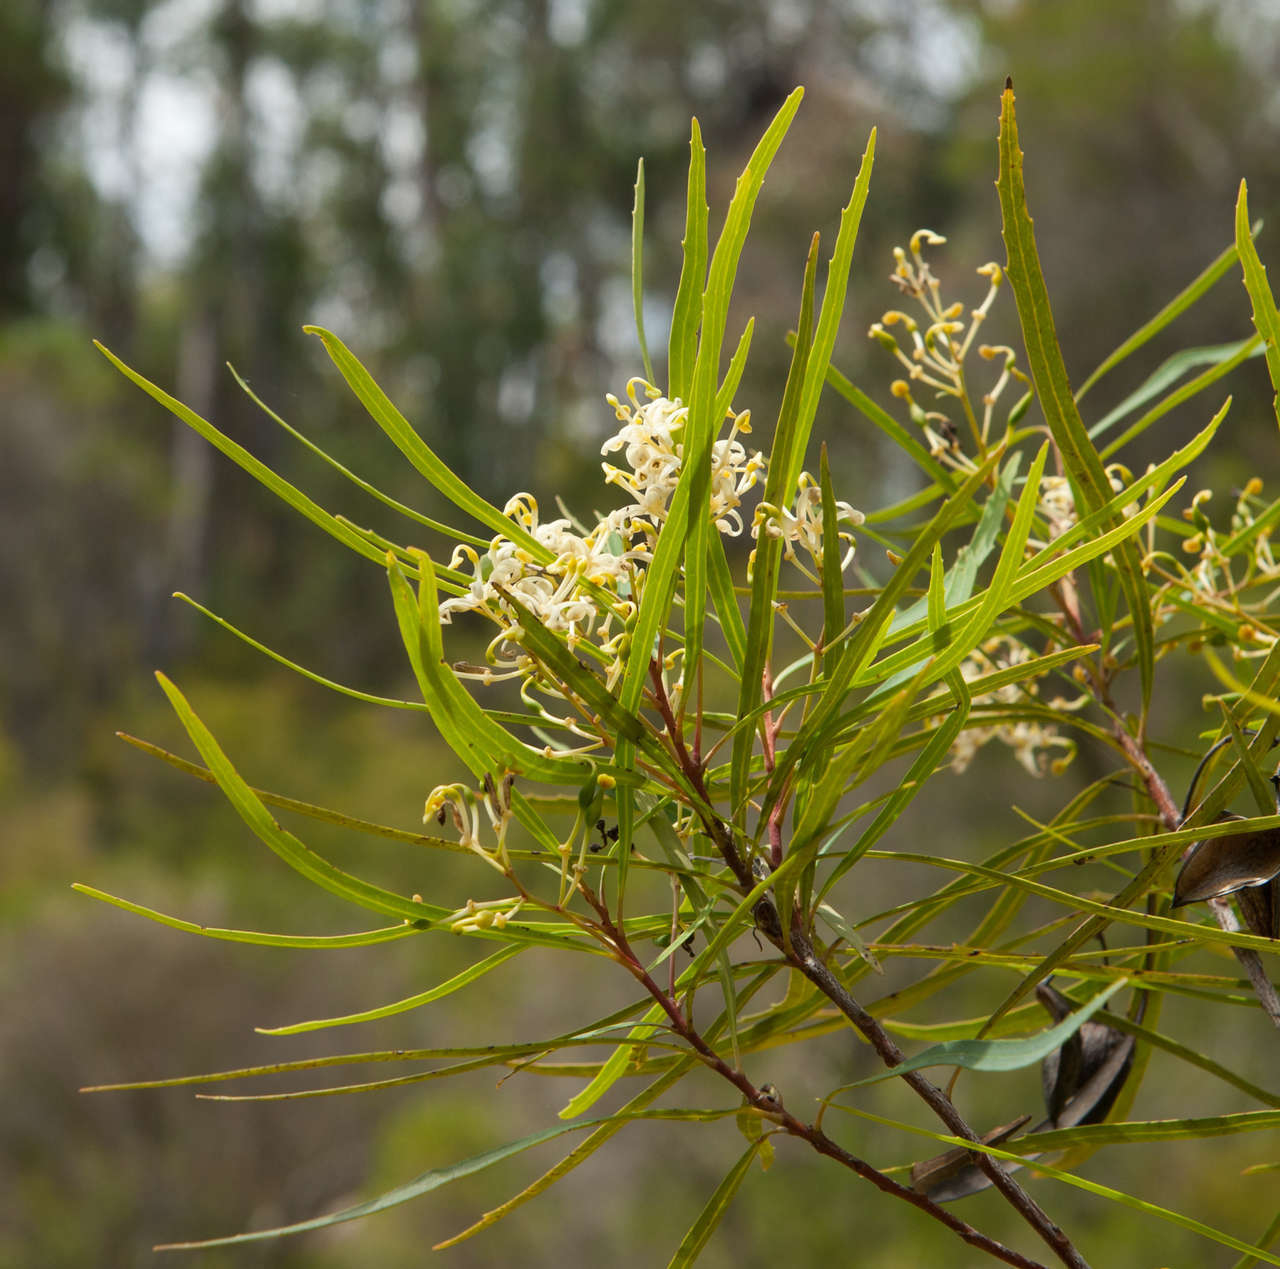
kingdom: Plantae
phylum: Tracheophyta
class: Magnoliopsida
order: Proteales
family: Proteaceae
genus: Lomatia
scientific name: Lomatia myricoides
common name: Longleaf lomatia
